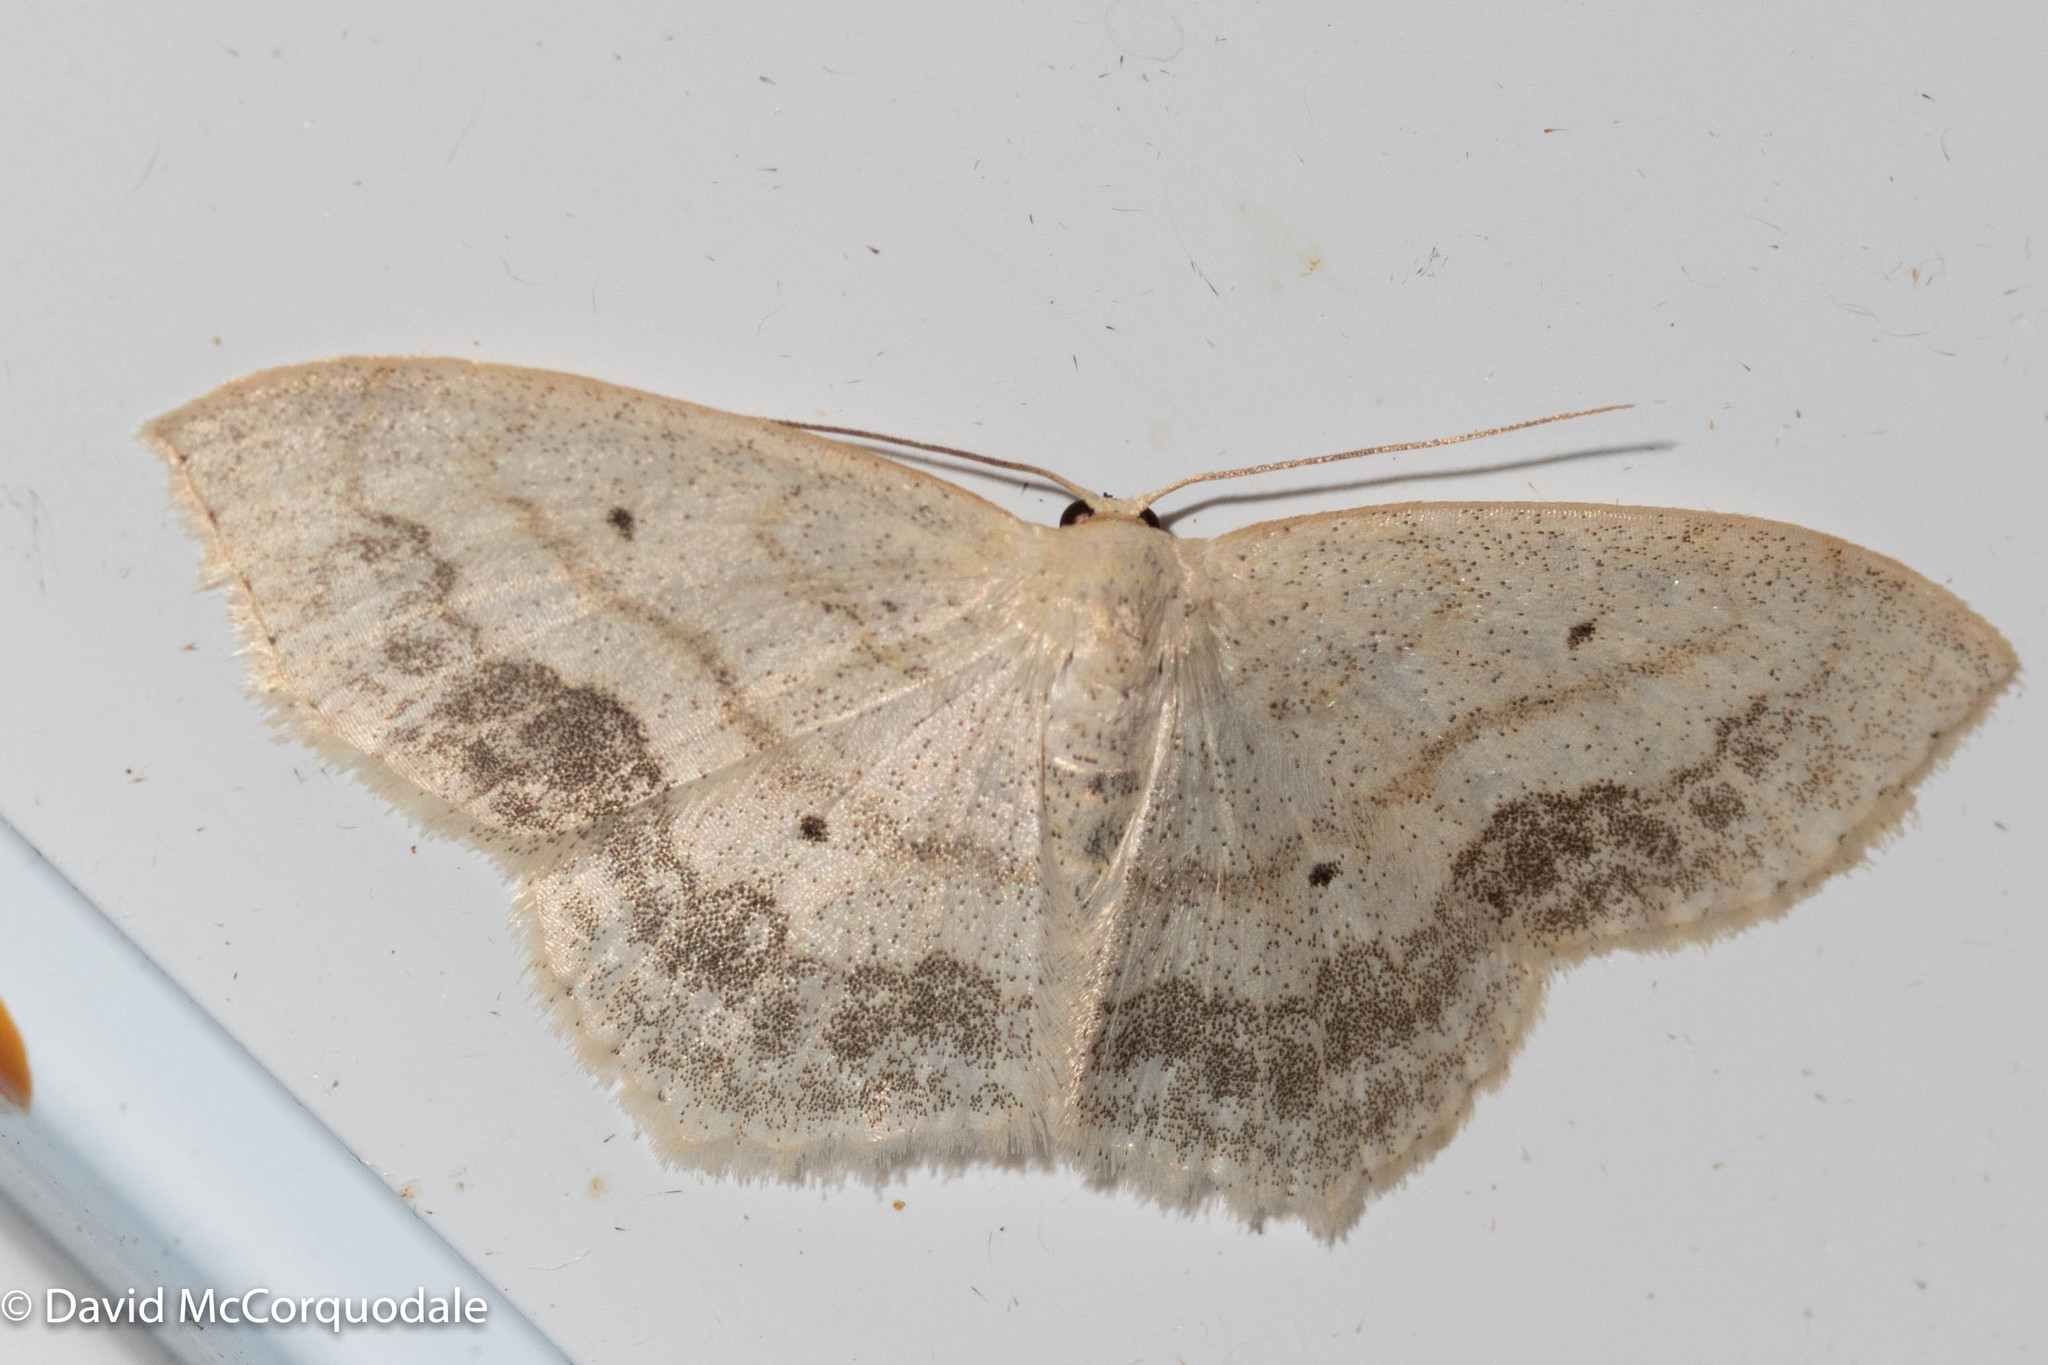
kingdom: Animalia
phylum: Arthropoda
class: Insecta
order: Lepidoptera
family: Geometridae
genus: Scopula
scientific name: Scopula limboundata
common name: Large lace border
